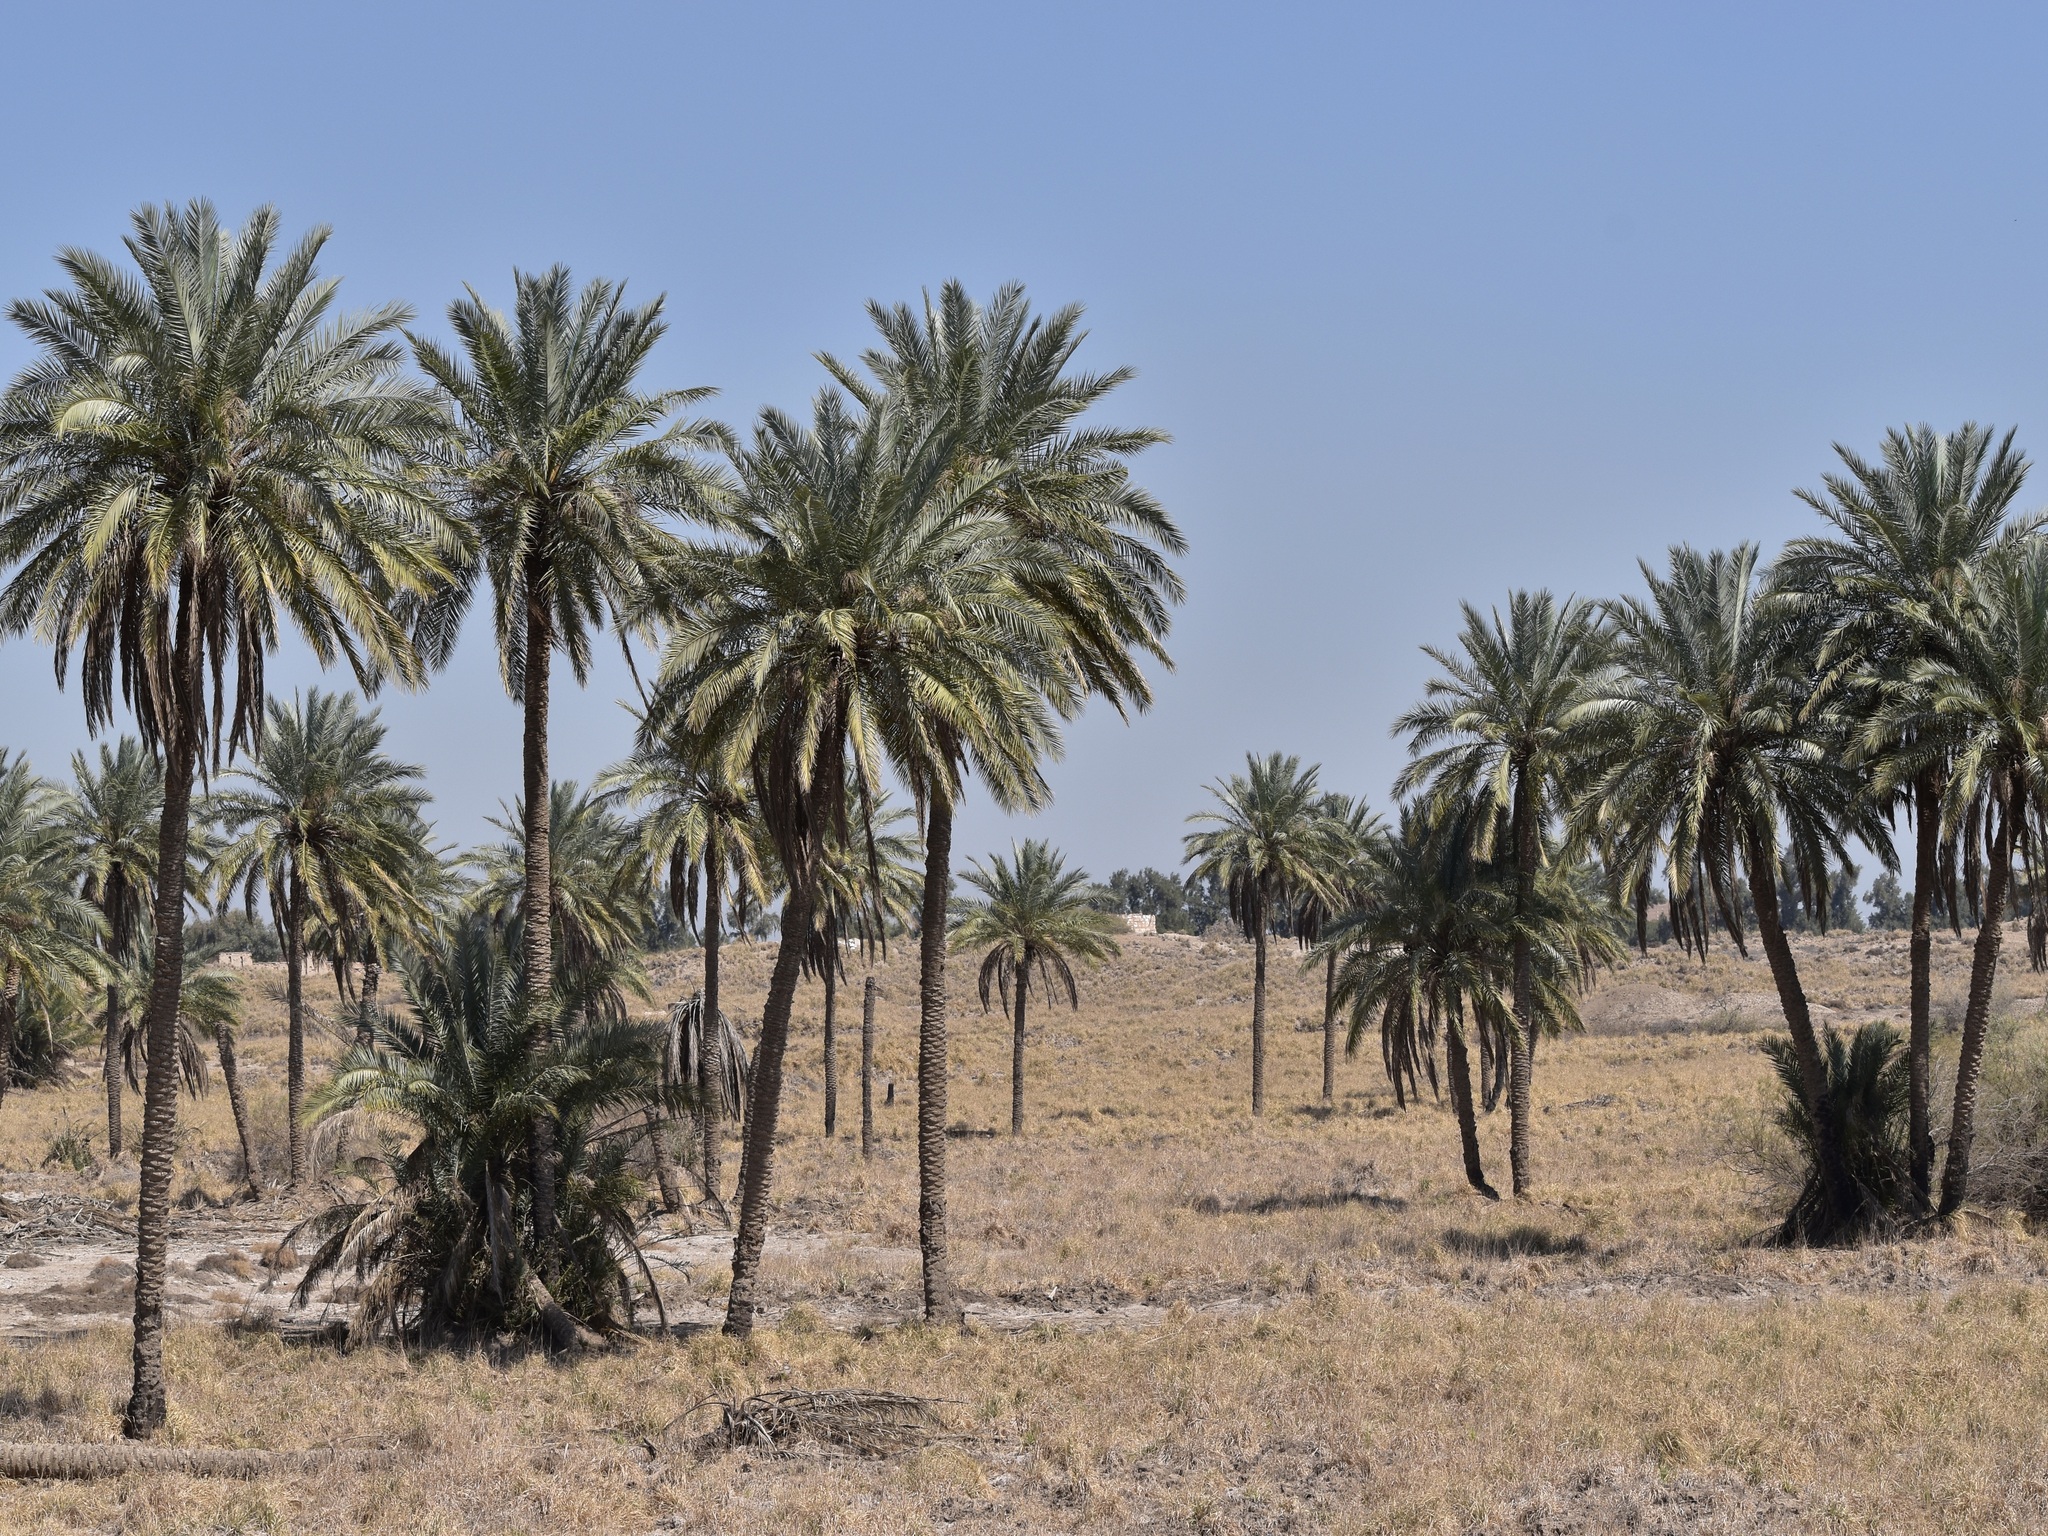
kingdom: Plantae
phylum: Tracheophyta
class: Liliopsida
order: Arecales
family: Arecaceae
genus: Phoenix
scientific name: Phoenix dactylifera
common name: Date palm
